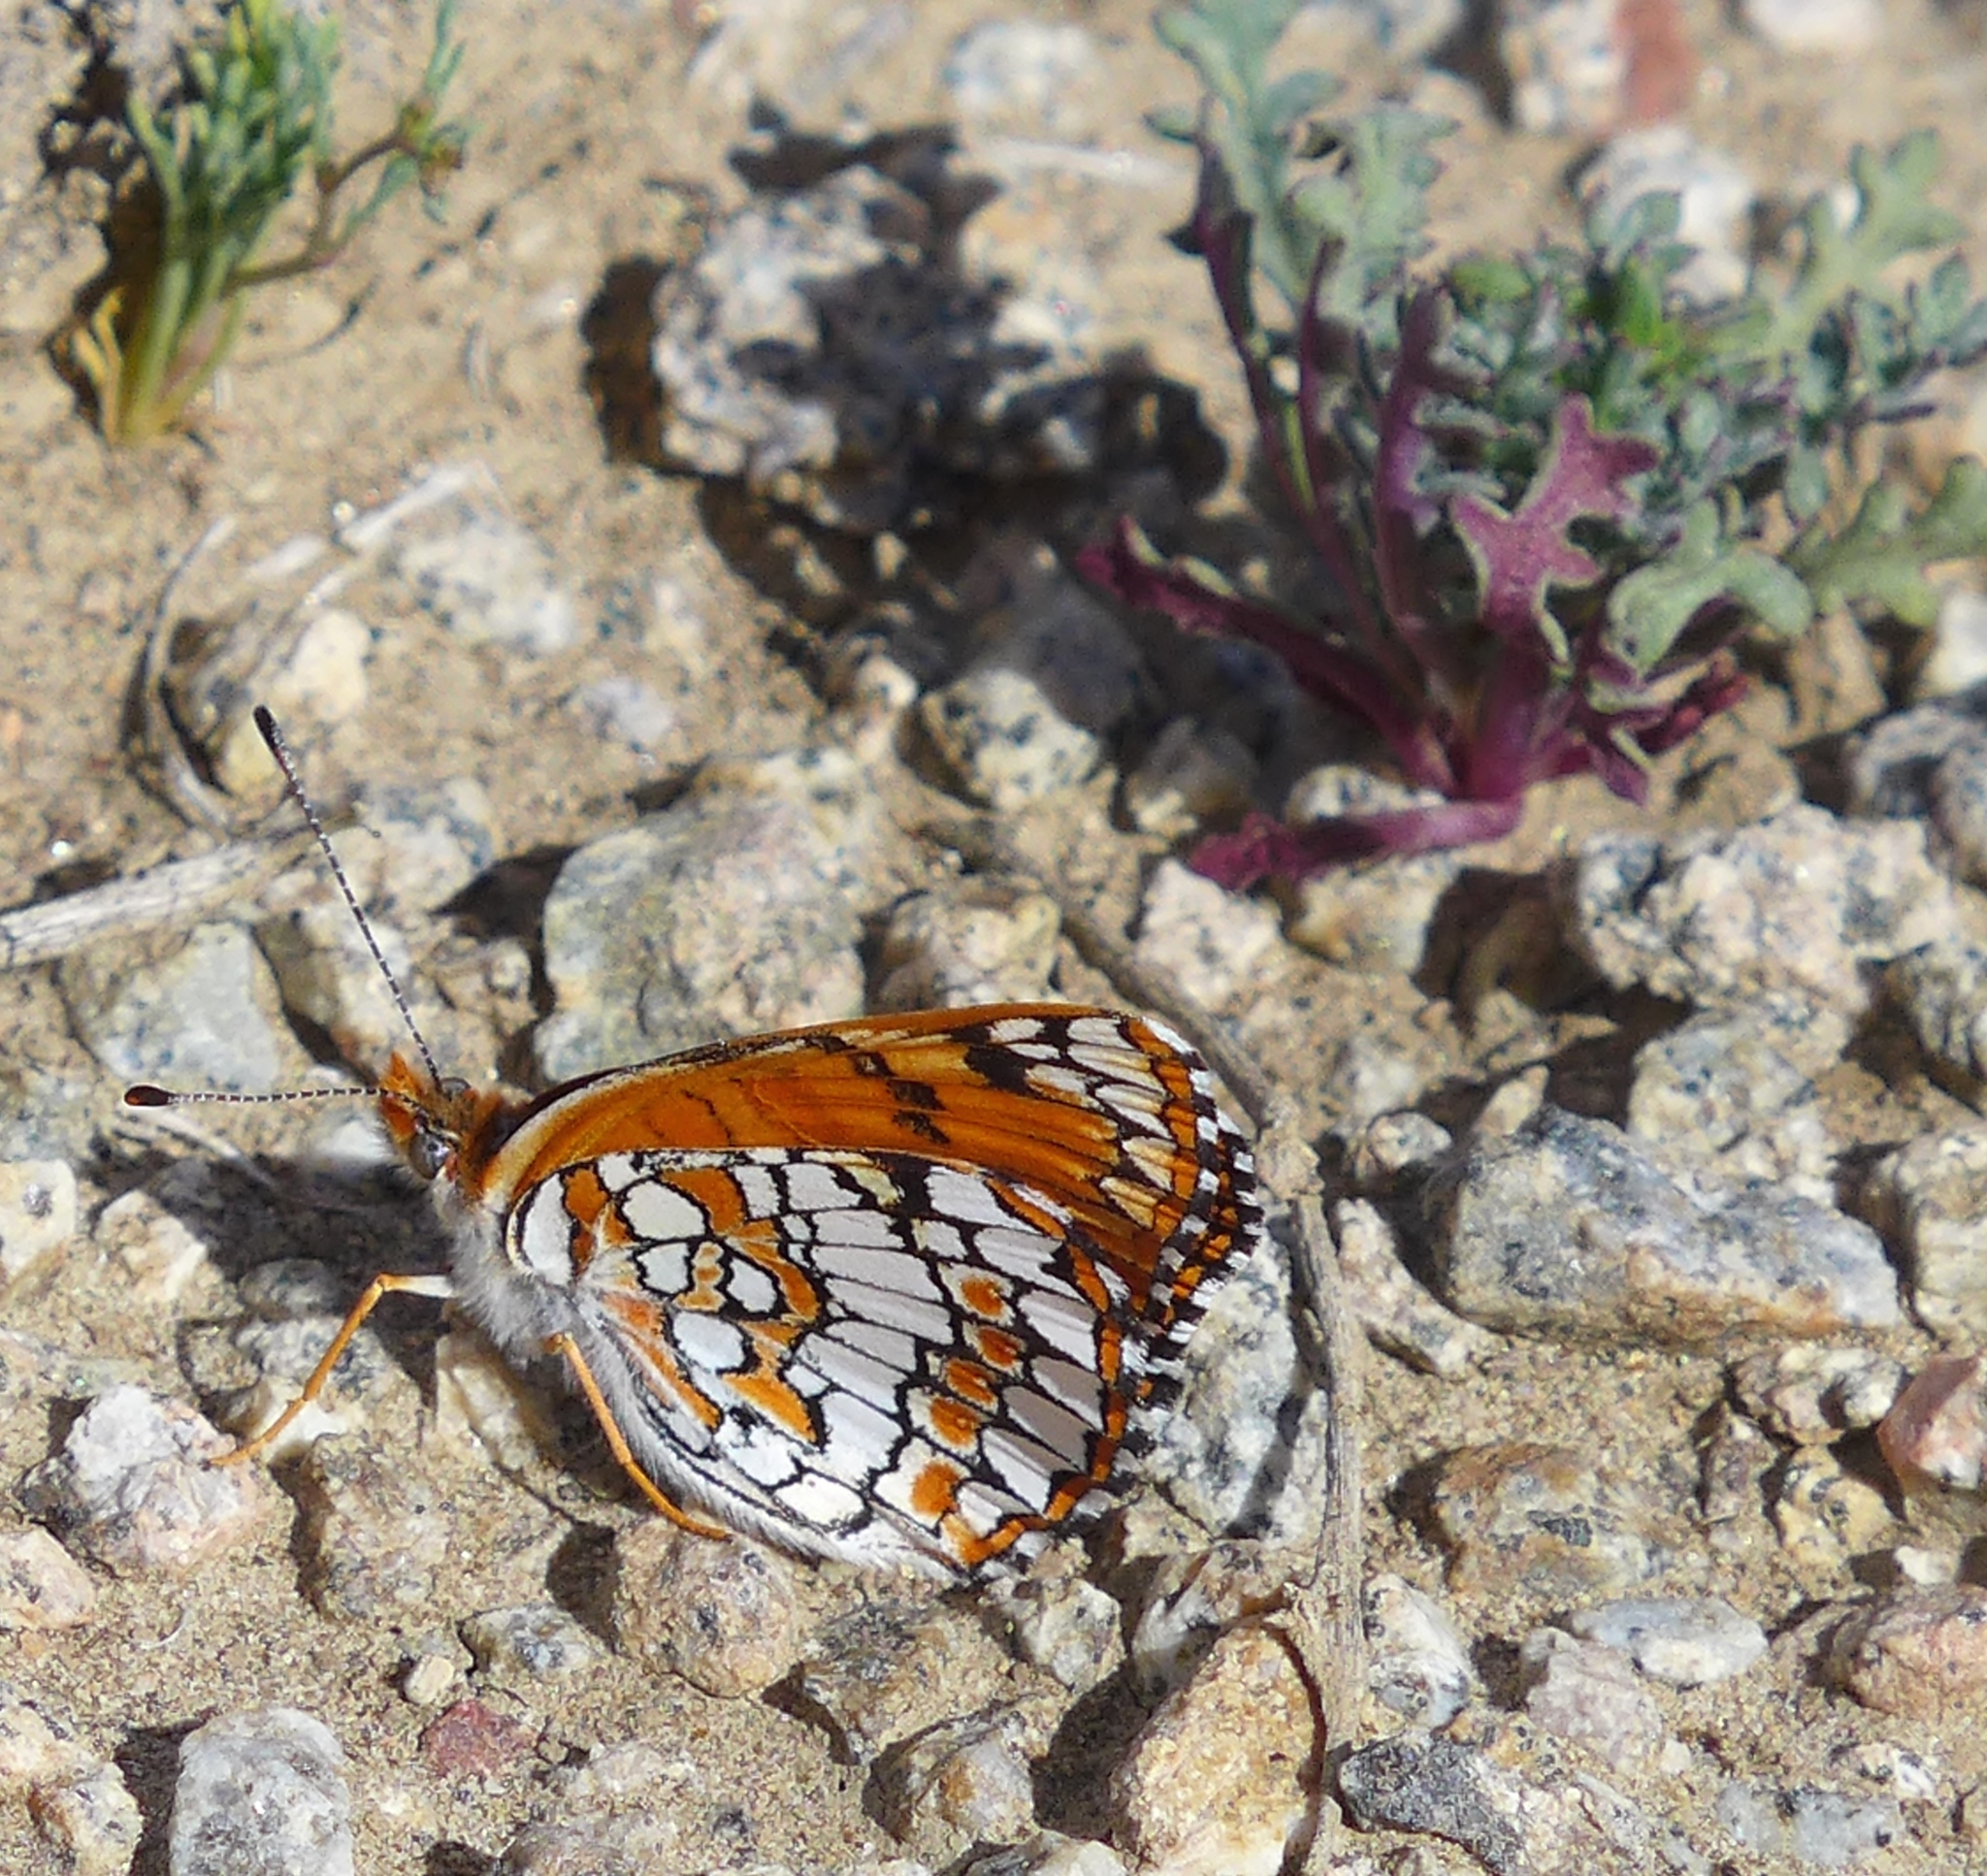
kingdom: Animalia
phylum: Arthropoda
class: Insecta
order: Lepidoptera
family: Nymphalidae
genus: Chlosyne
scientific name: Chlosyne acastus
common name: Sagebrush checkerspot
